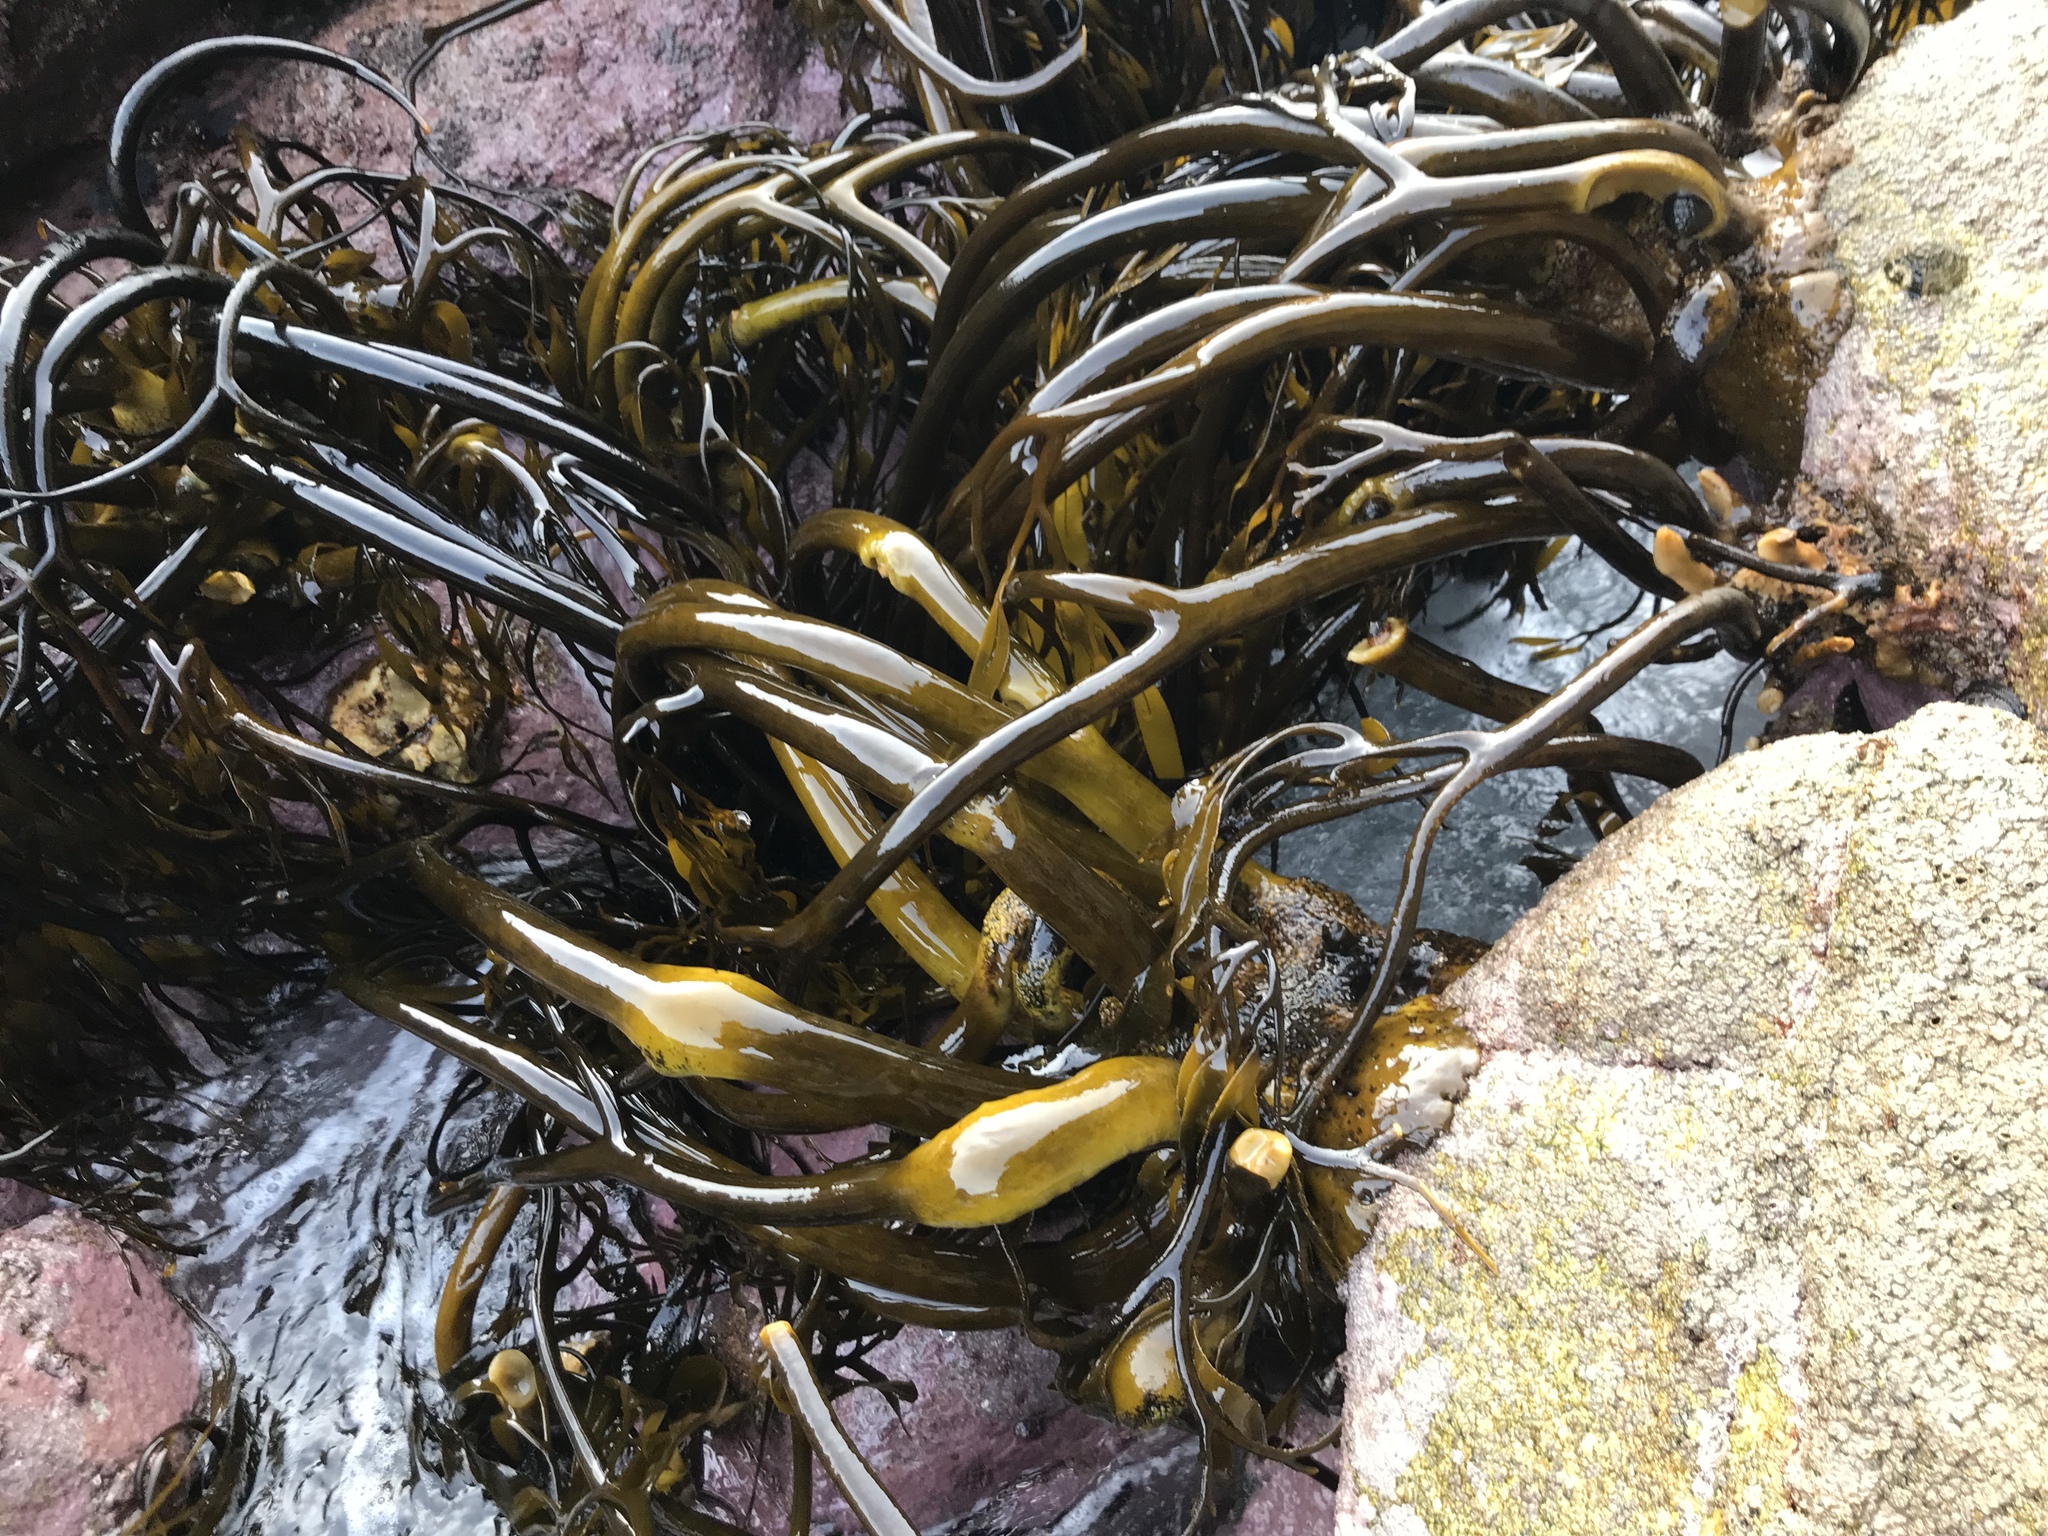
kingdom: Chromista
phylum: Ochrophyta
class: Phaeophyceae
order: Laminariales
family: Lessoniaceae
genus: Lessonia
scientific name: Lessonia spicata
